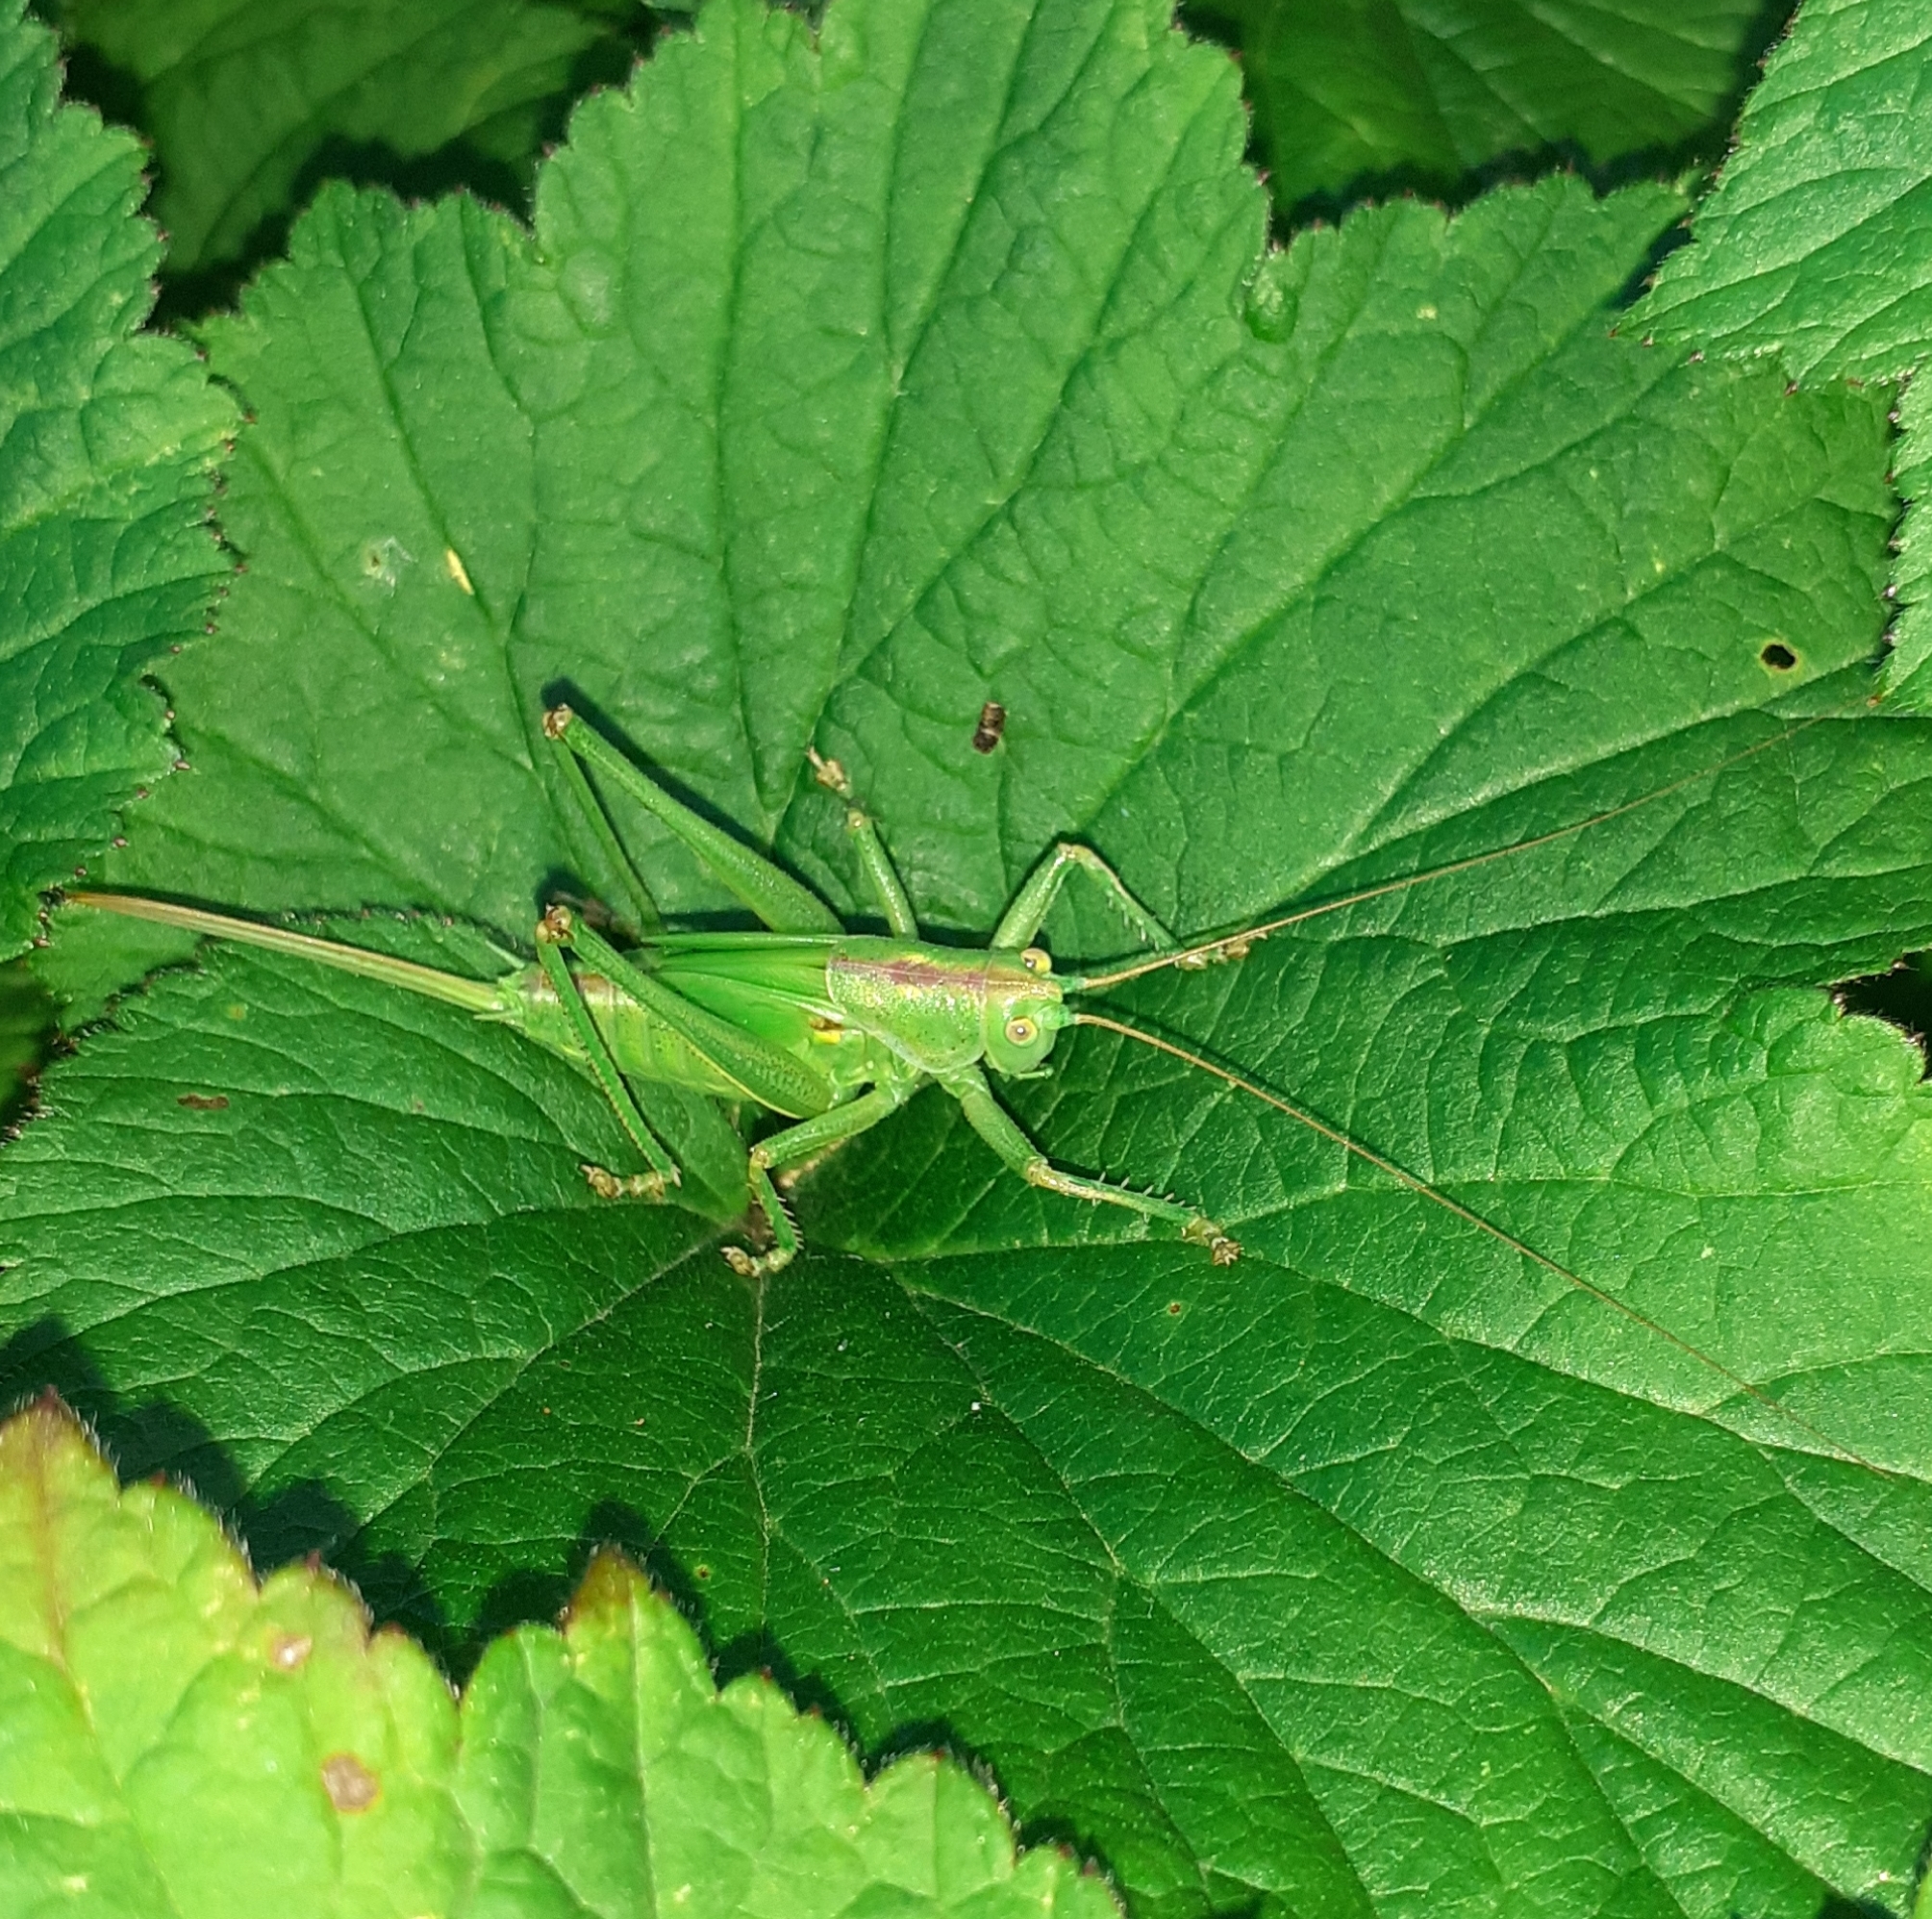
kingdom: Animalia
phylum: Arthropoda
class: Insecta
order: Orthoptera
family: Tettigoniidae
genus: Tettigonia
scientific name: Tettigonia viridissima
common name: Great green bush-cricket
